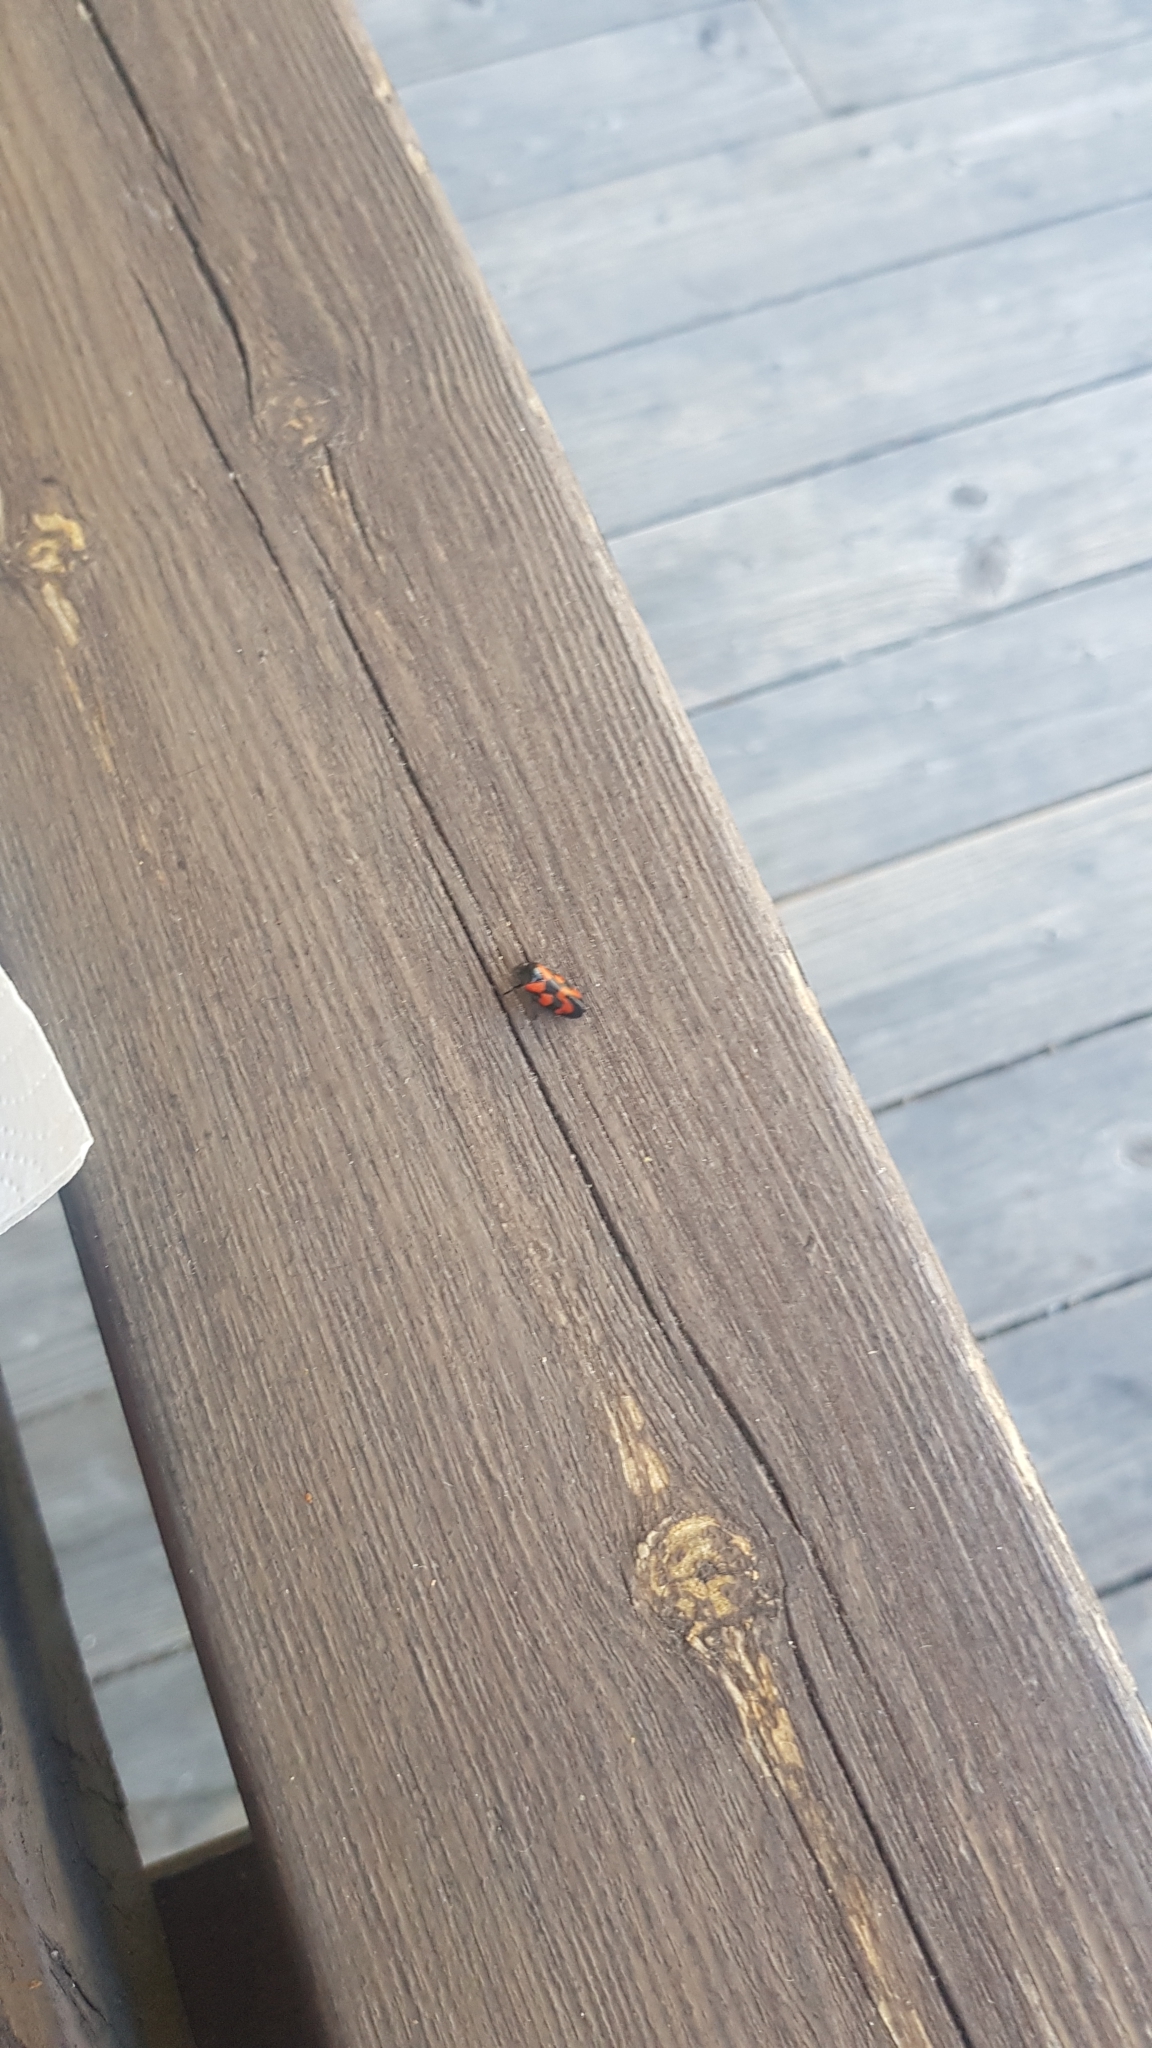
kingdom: Animalia
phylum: Arthropoda
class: Insecta
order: Hemiptera
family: Cercopidae
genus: Cercopis
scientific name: Cercopis vulnerata
